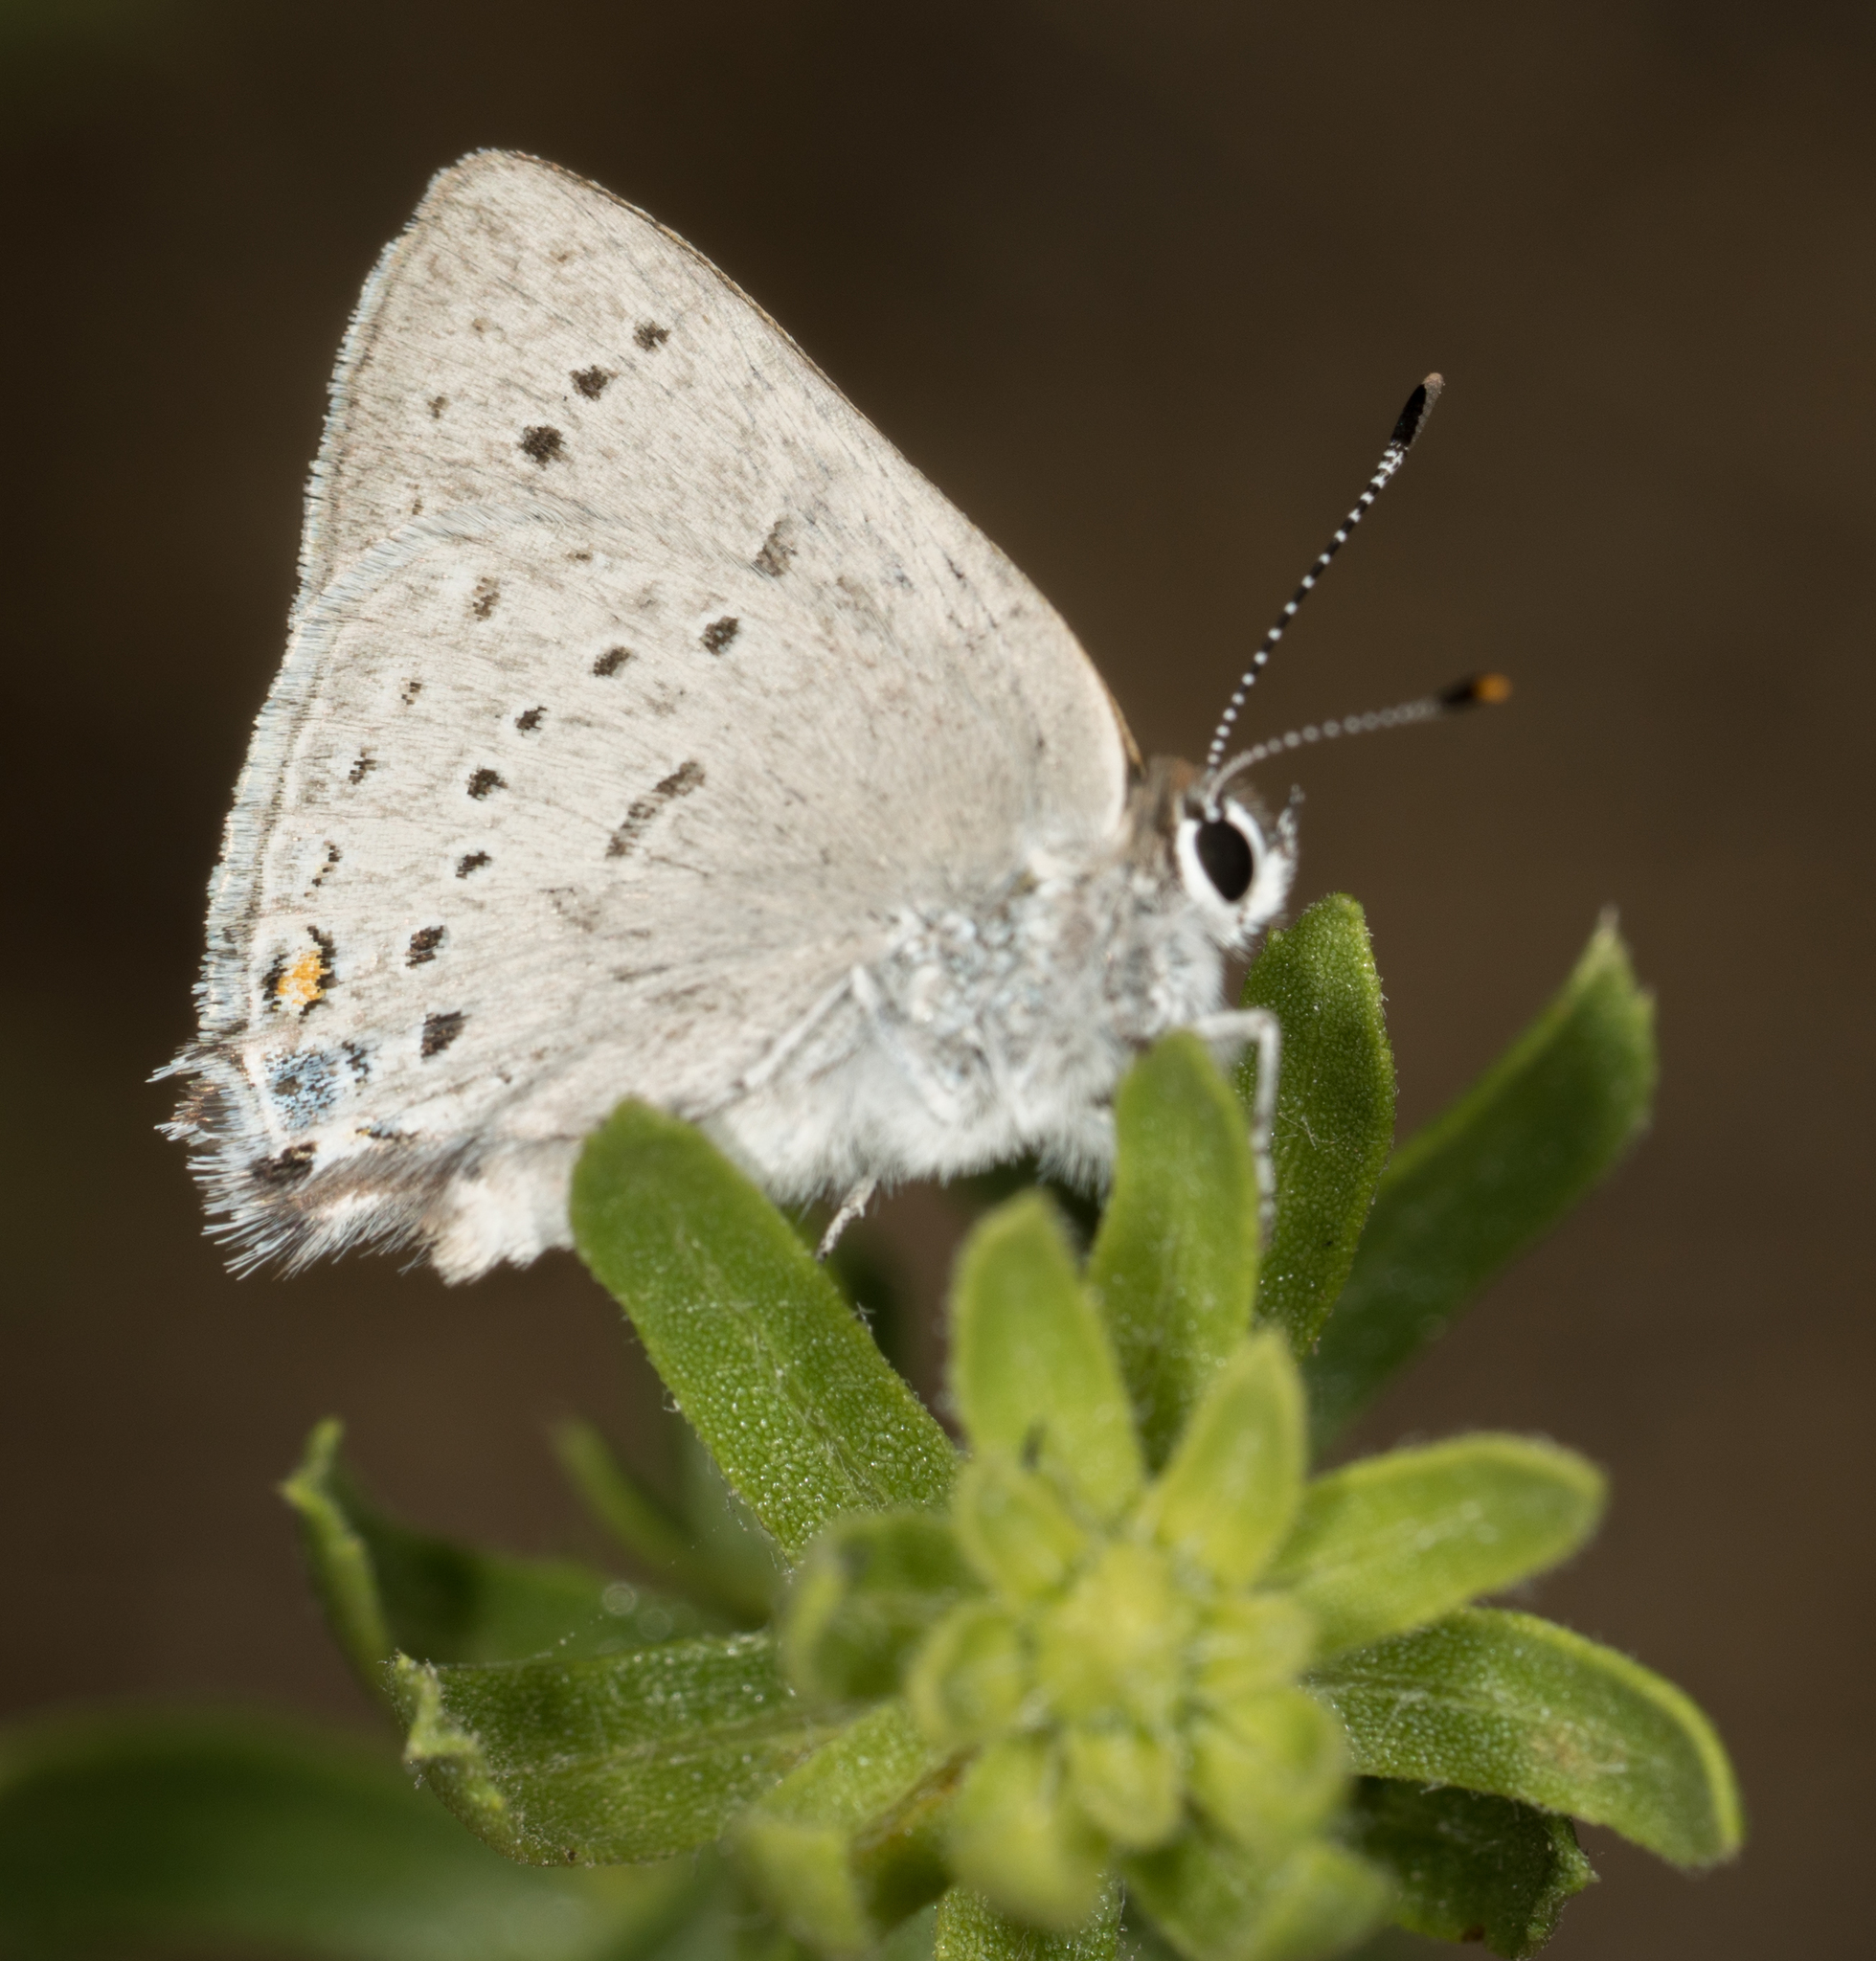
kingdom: Animalia
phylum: Arthropoda
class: Insecta
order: Lepidoptera
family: Lycaenidae
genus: Strymon
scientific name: Strymon sylvinus
